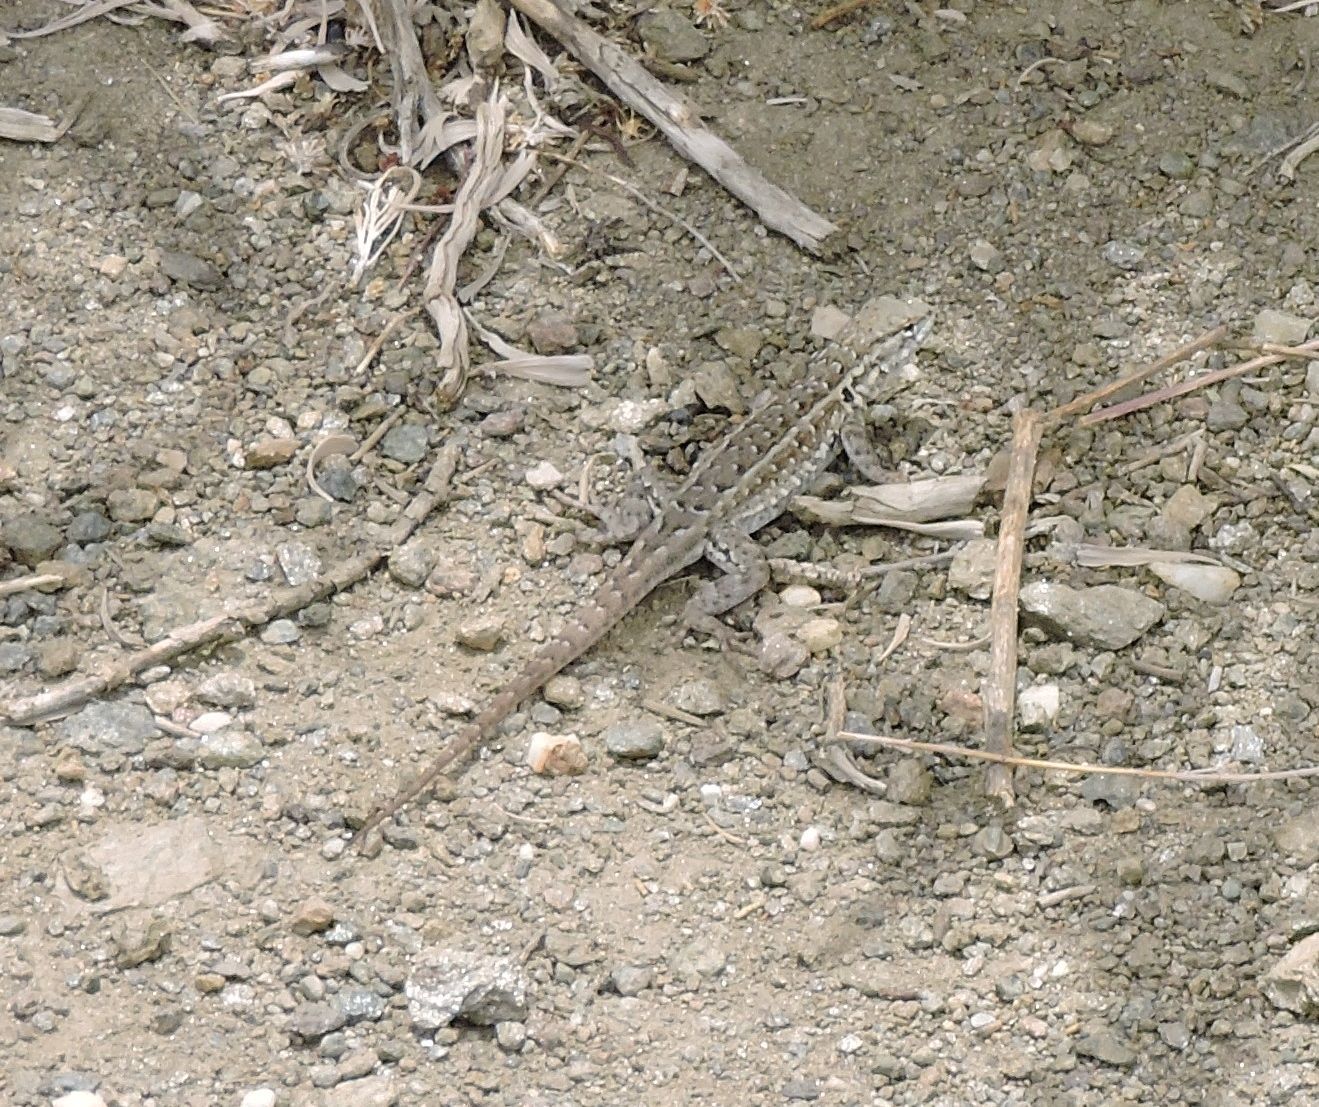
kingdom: Animalia
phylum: Chordata
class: Squamata
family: Phrynosomatidae
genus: Uta
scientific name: Uta stansburiana
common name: Side-blotched lizard
